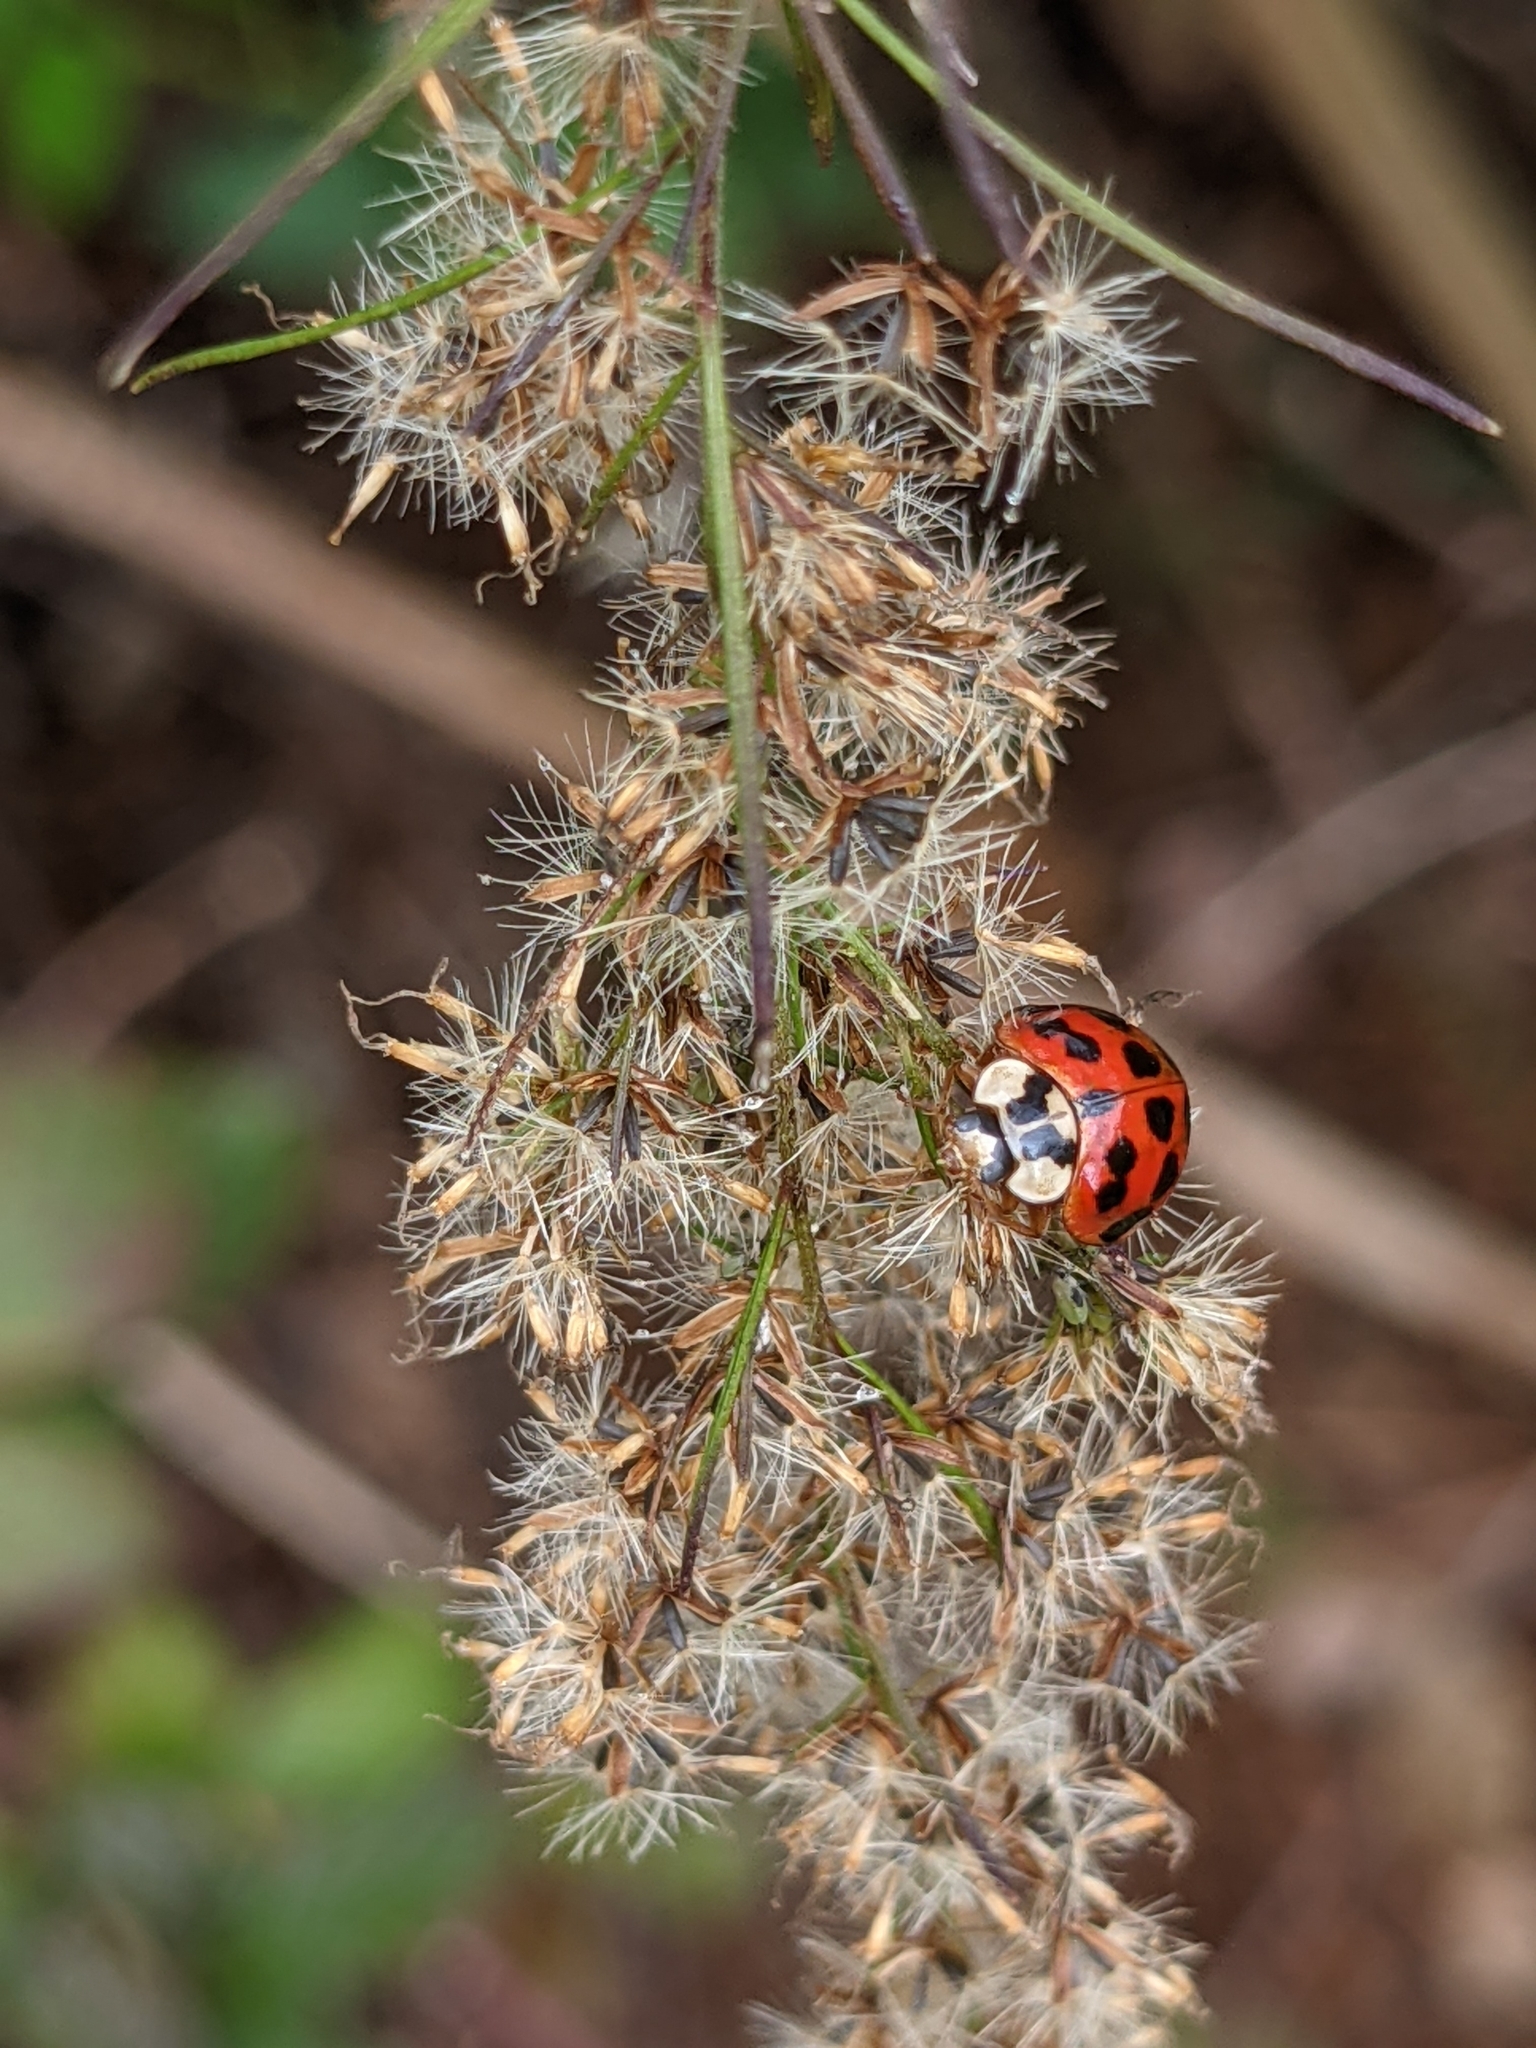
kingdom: Animalia
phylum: Arthropoda
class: Insecta
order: Coleoptera
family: Coccinellidae
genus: Harmonia
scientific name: Harmonia axyridis
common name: Harlequin ladybird
